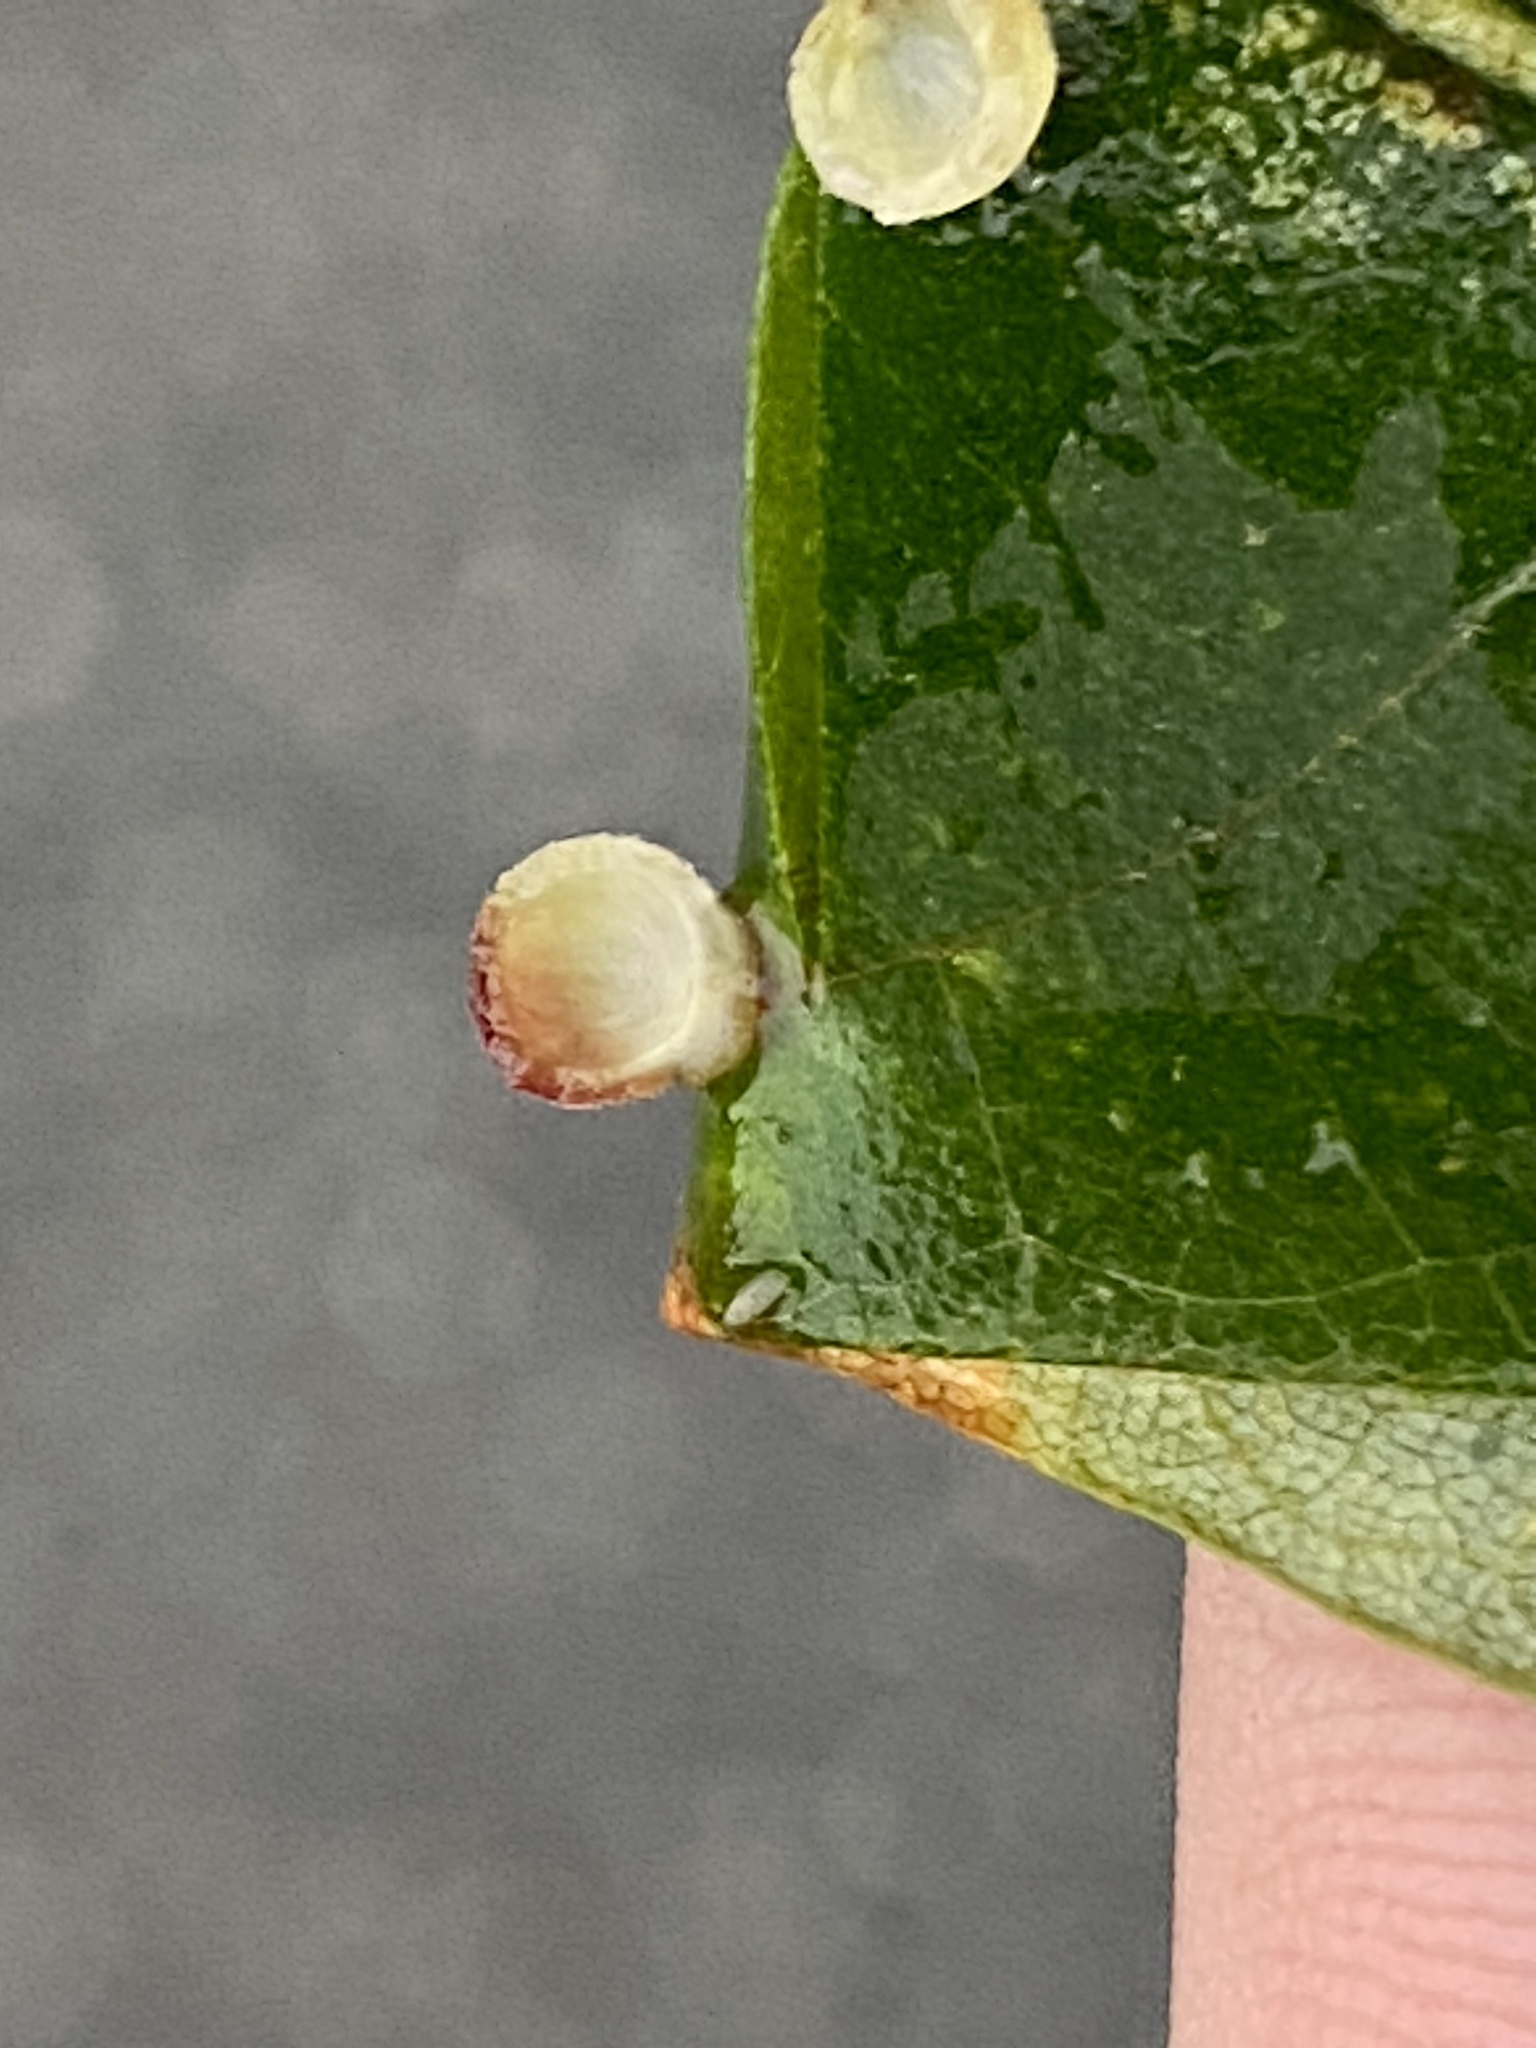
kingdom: Animalia
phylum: Arthropoda
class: Insecta
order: Diptera
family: Cecidomyiidae
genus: Caryomyia
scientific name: Caryomyia tuberidolium
